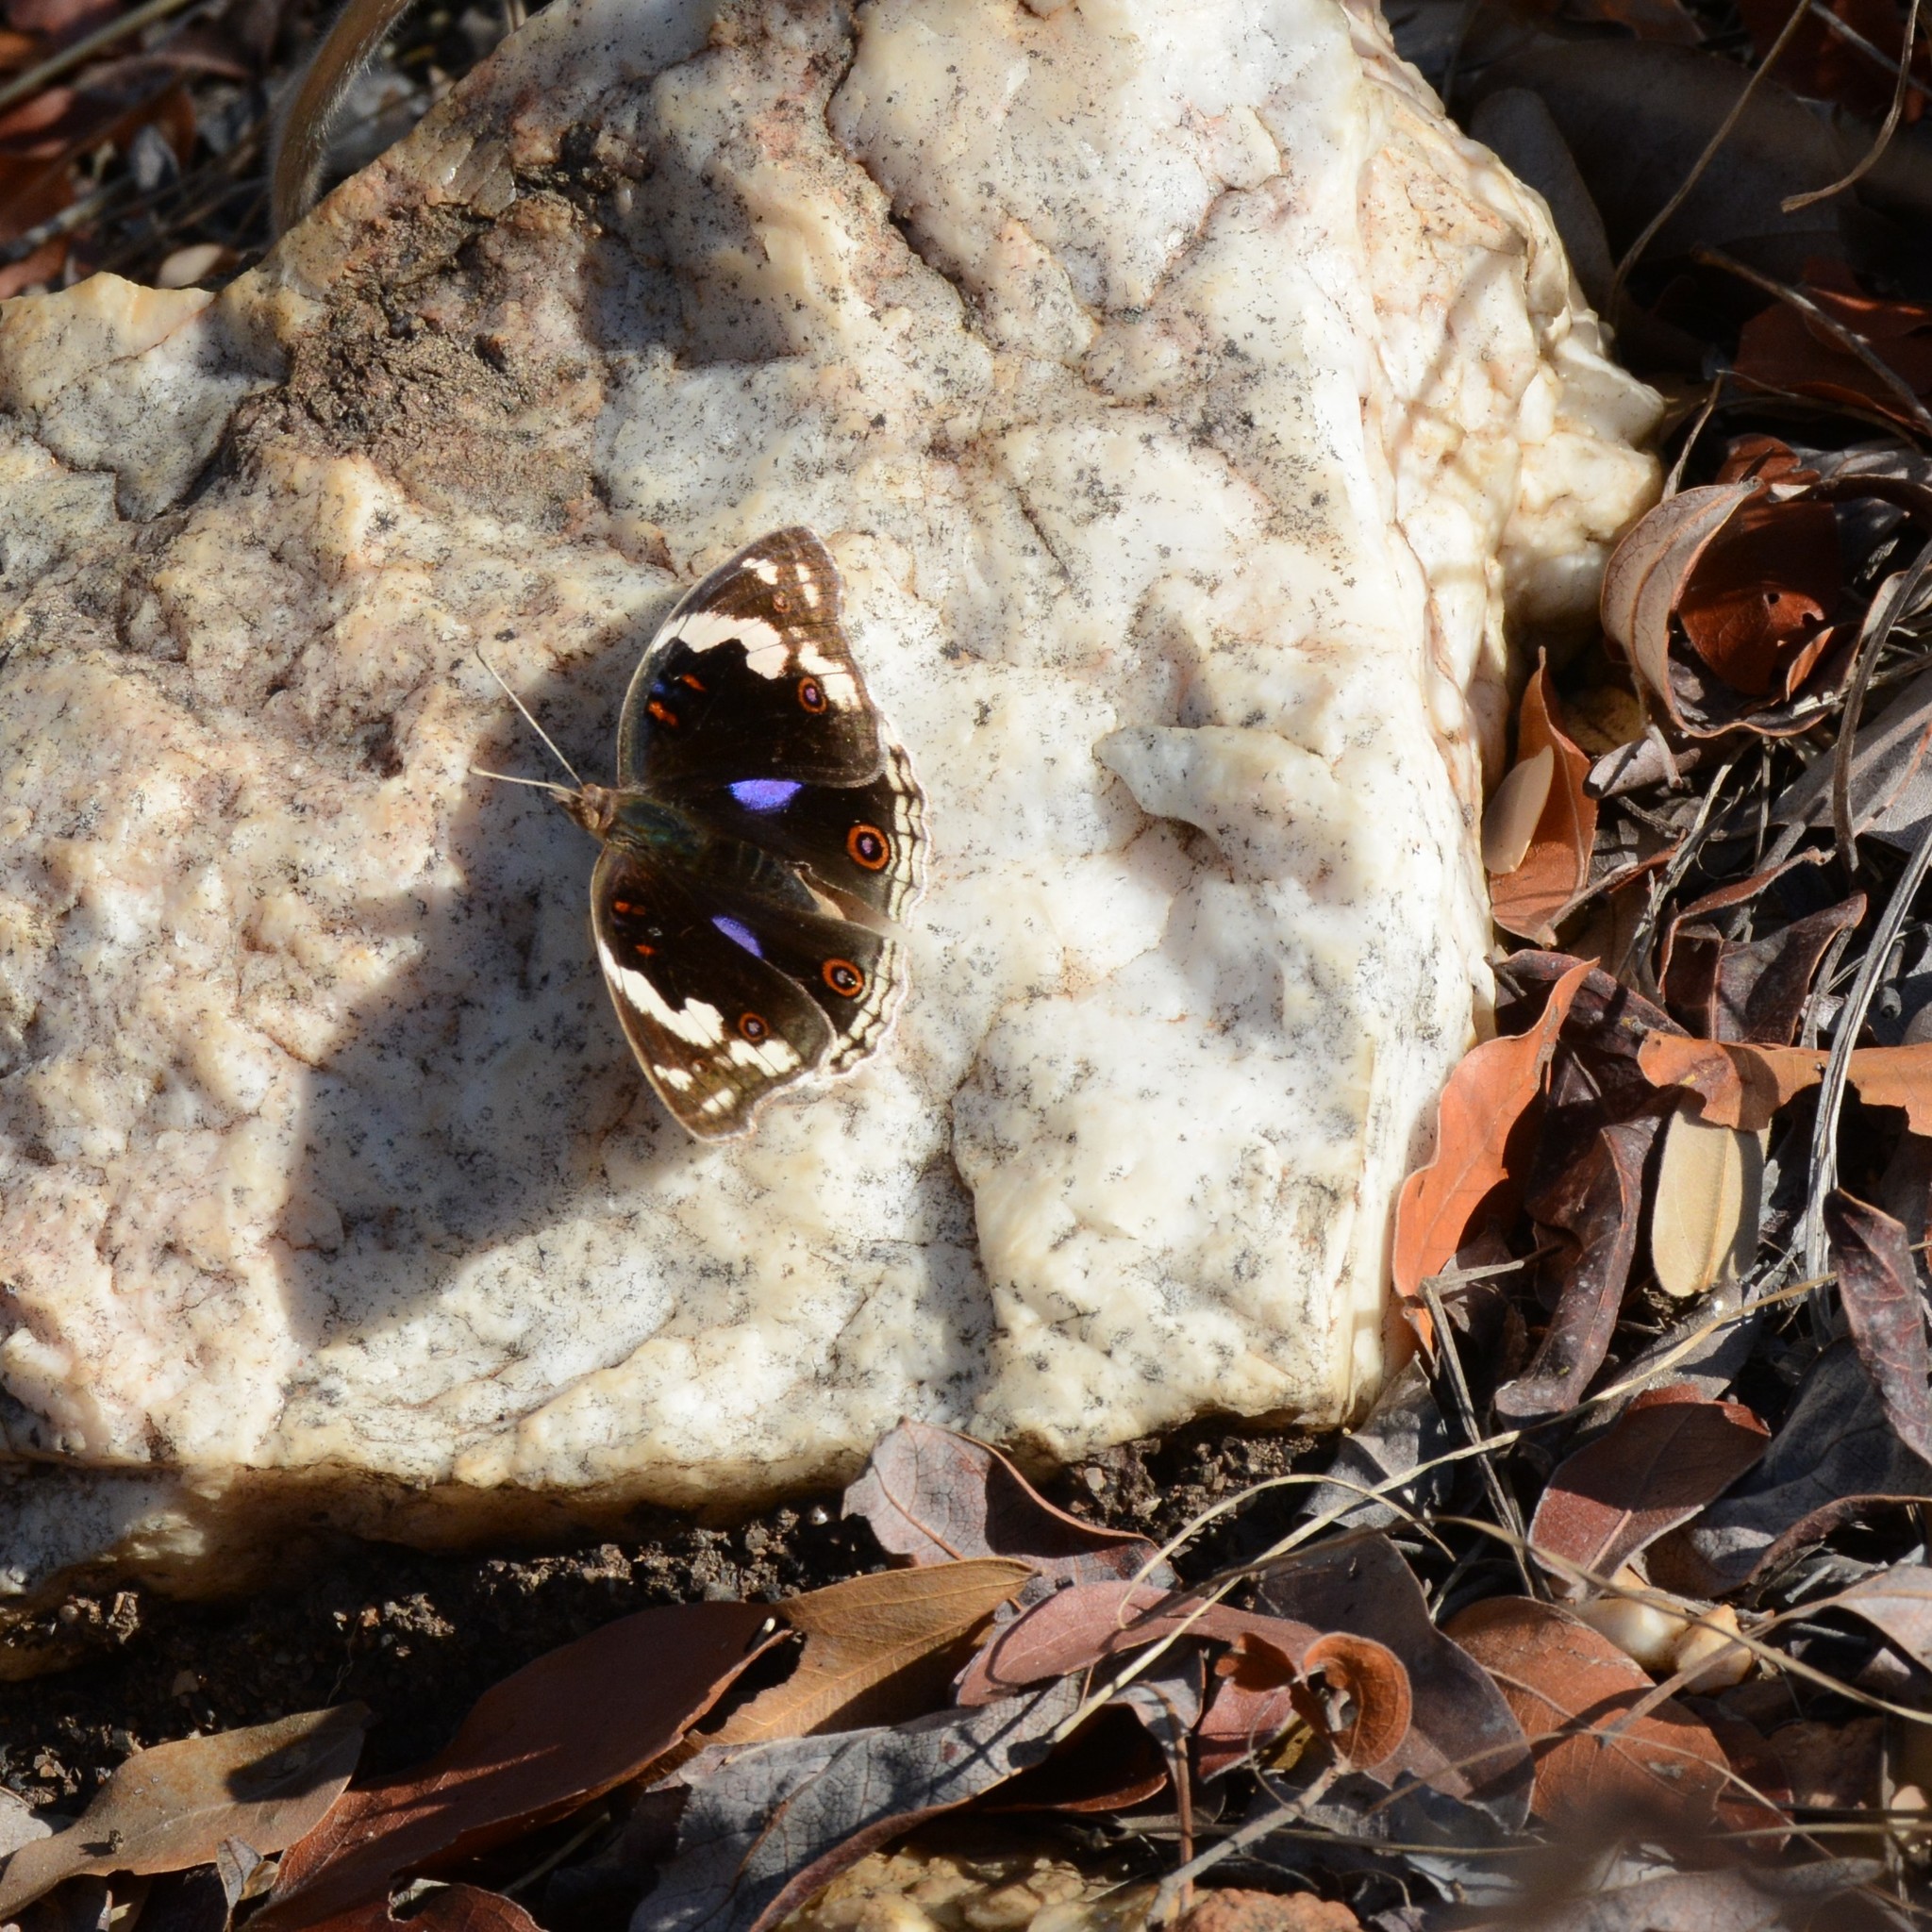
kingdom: Animalia
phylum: Arthropoda
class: Insecta
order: Lepidoptera
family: Nymphalidae
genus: Junonia
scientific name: Junonia oenone
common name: Dark blue pansy
